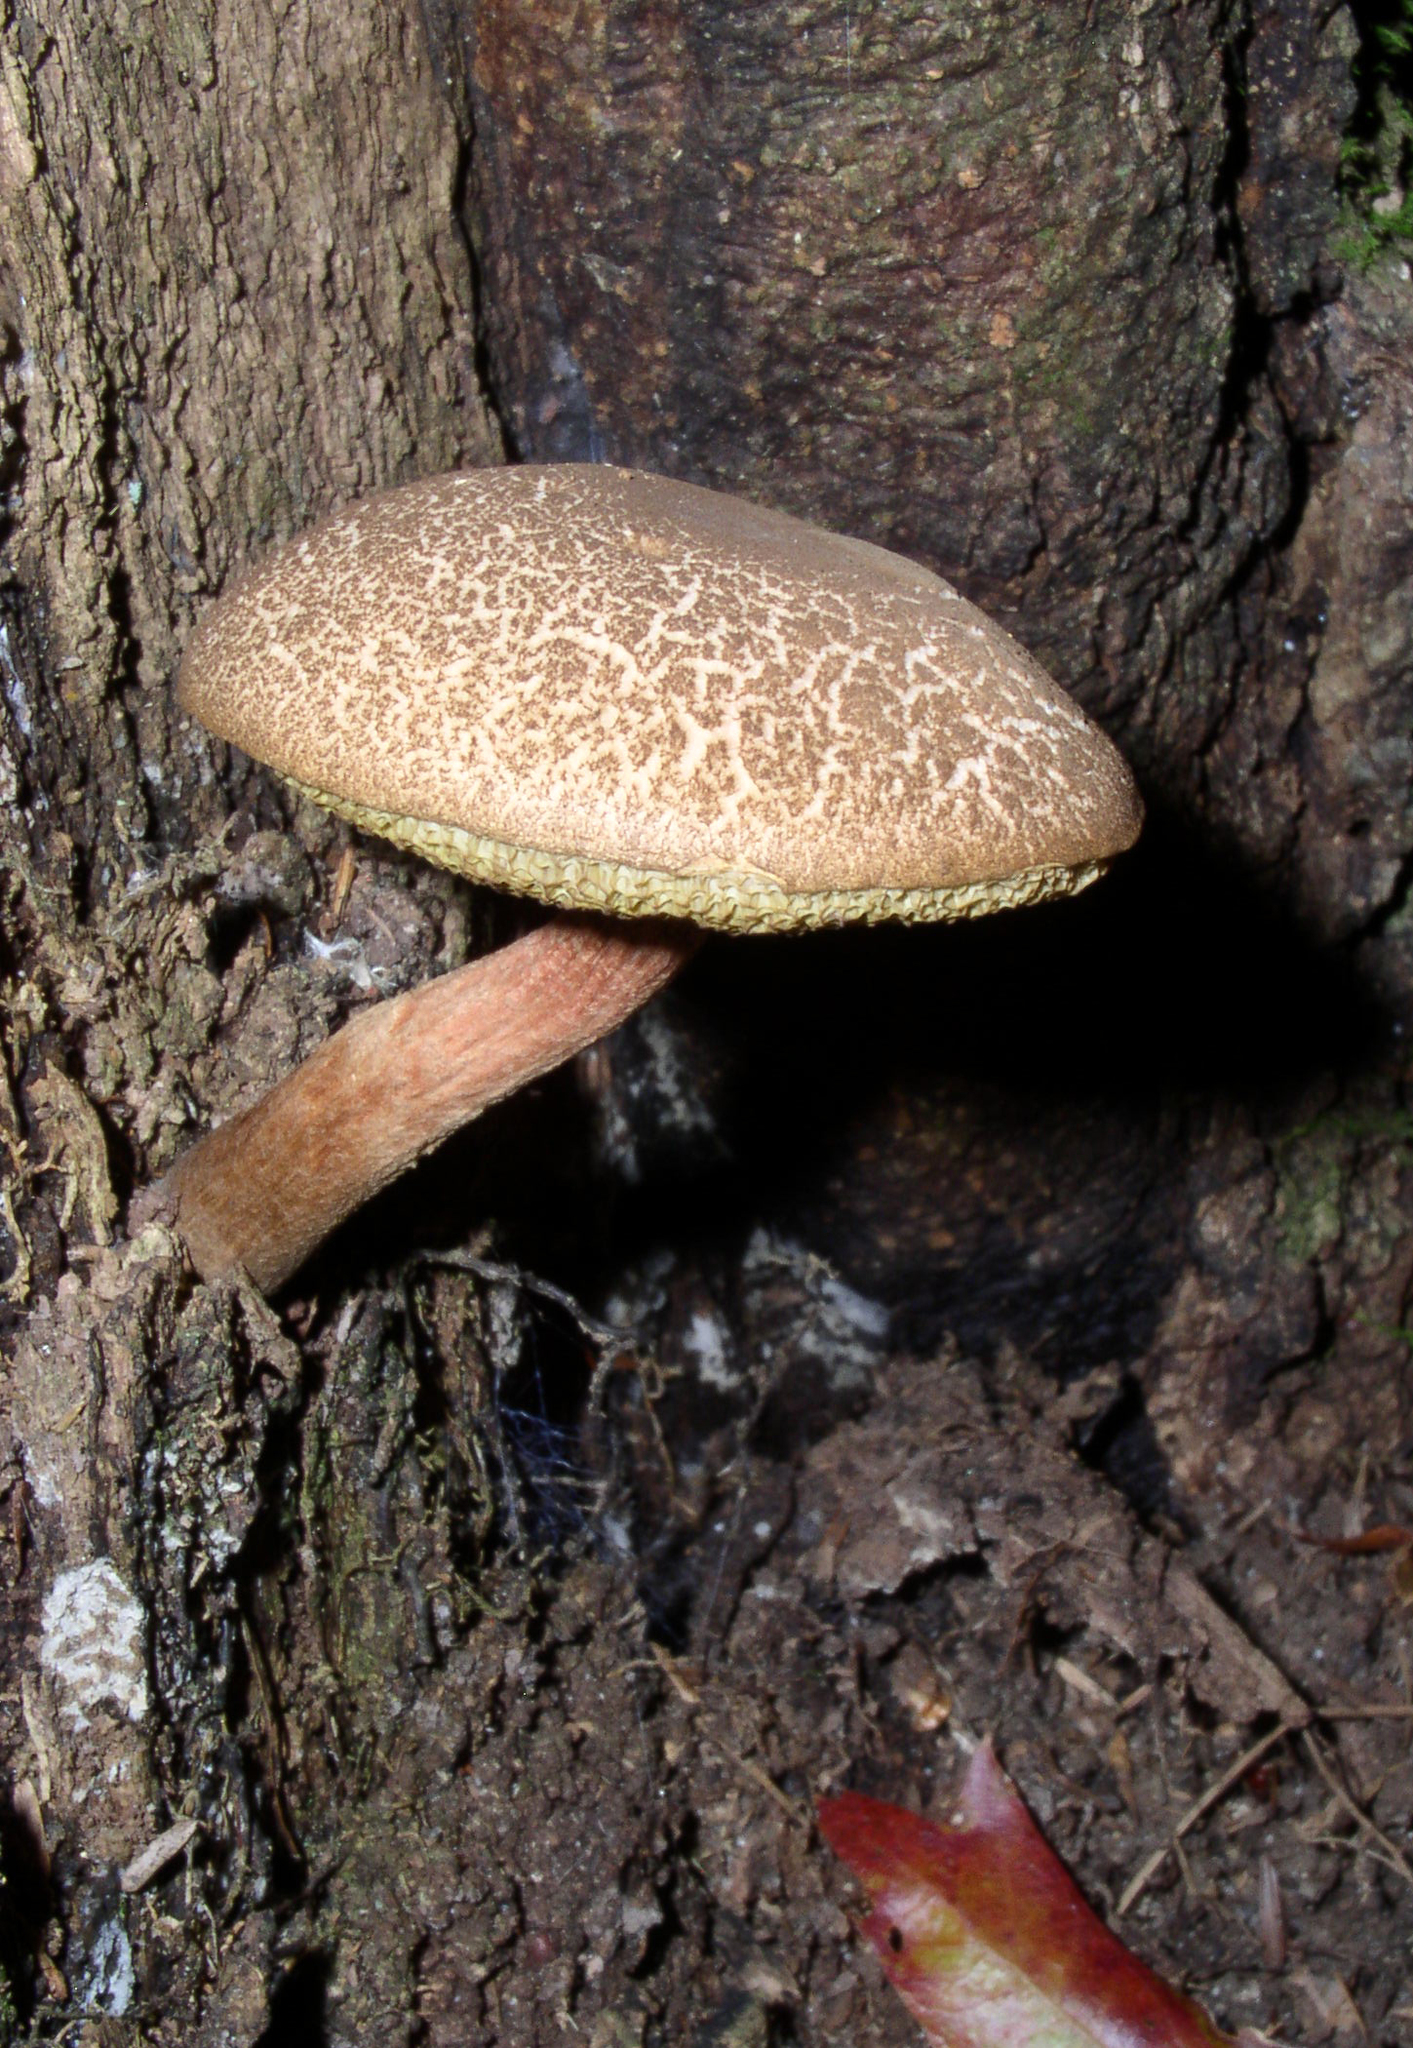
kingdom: Fungi
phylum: Basidiomycota
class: Agaricomycetes
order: Boletales
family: Boletaceae
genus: Boletellus
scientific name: Boletellus chrysenteroides
